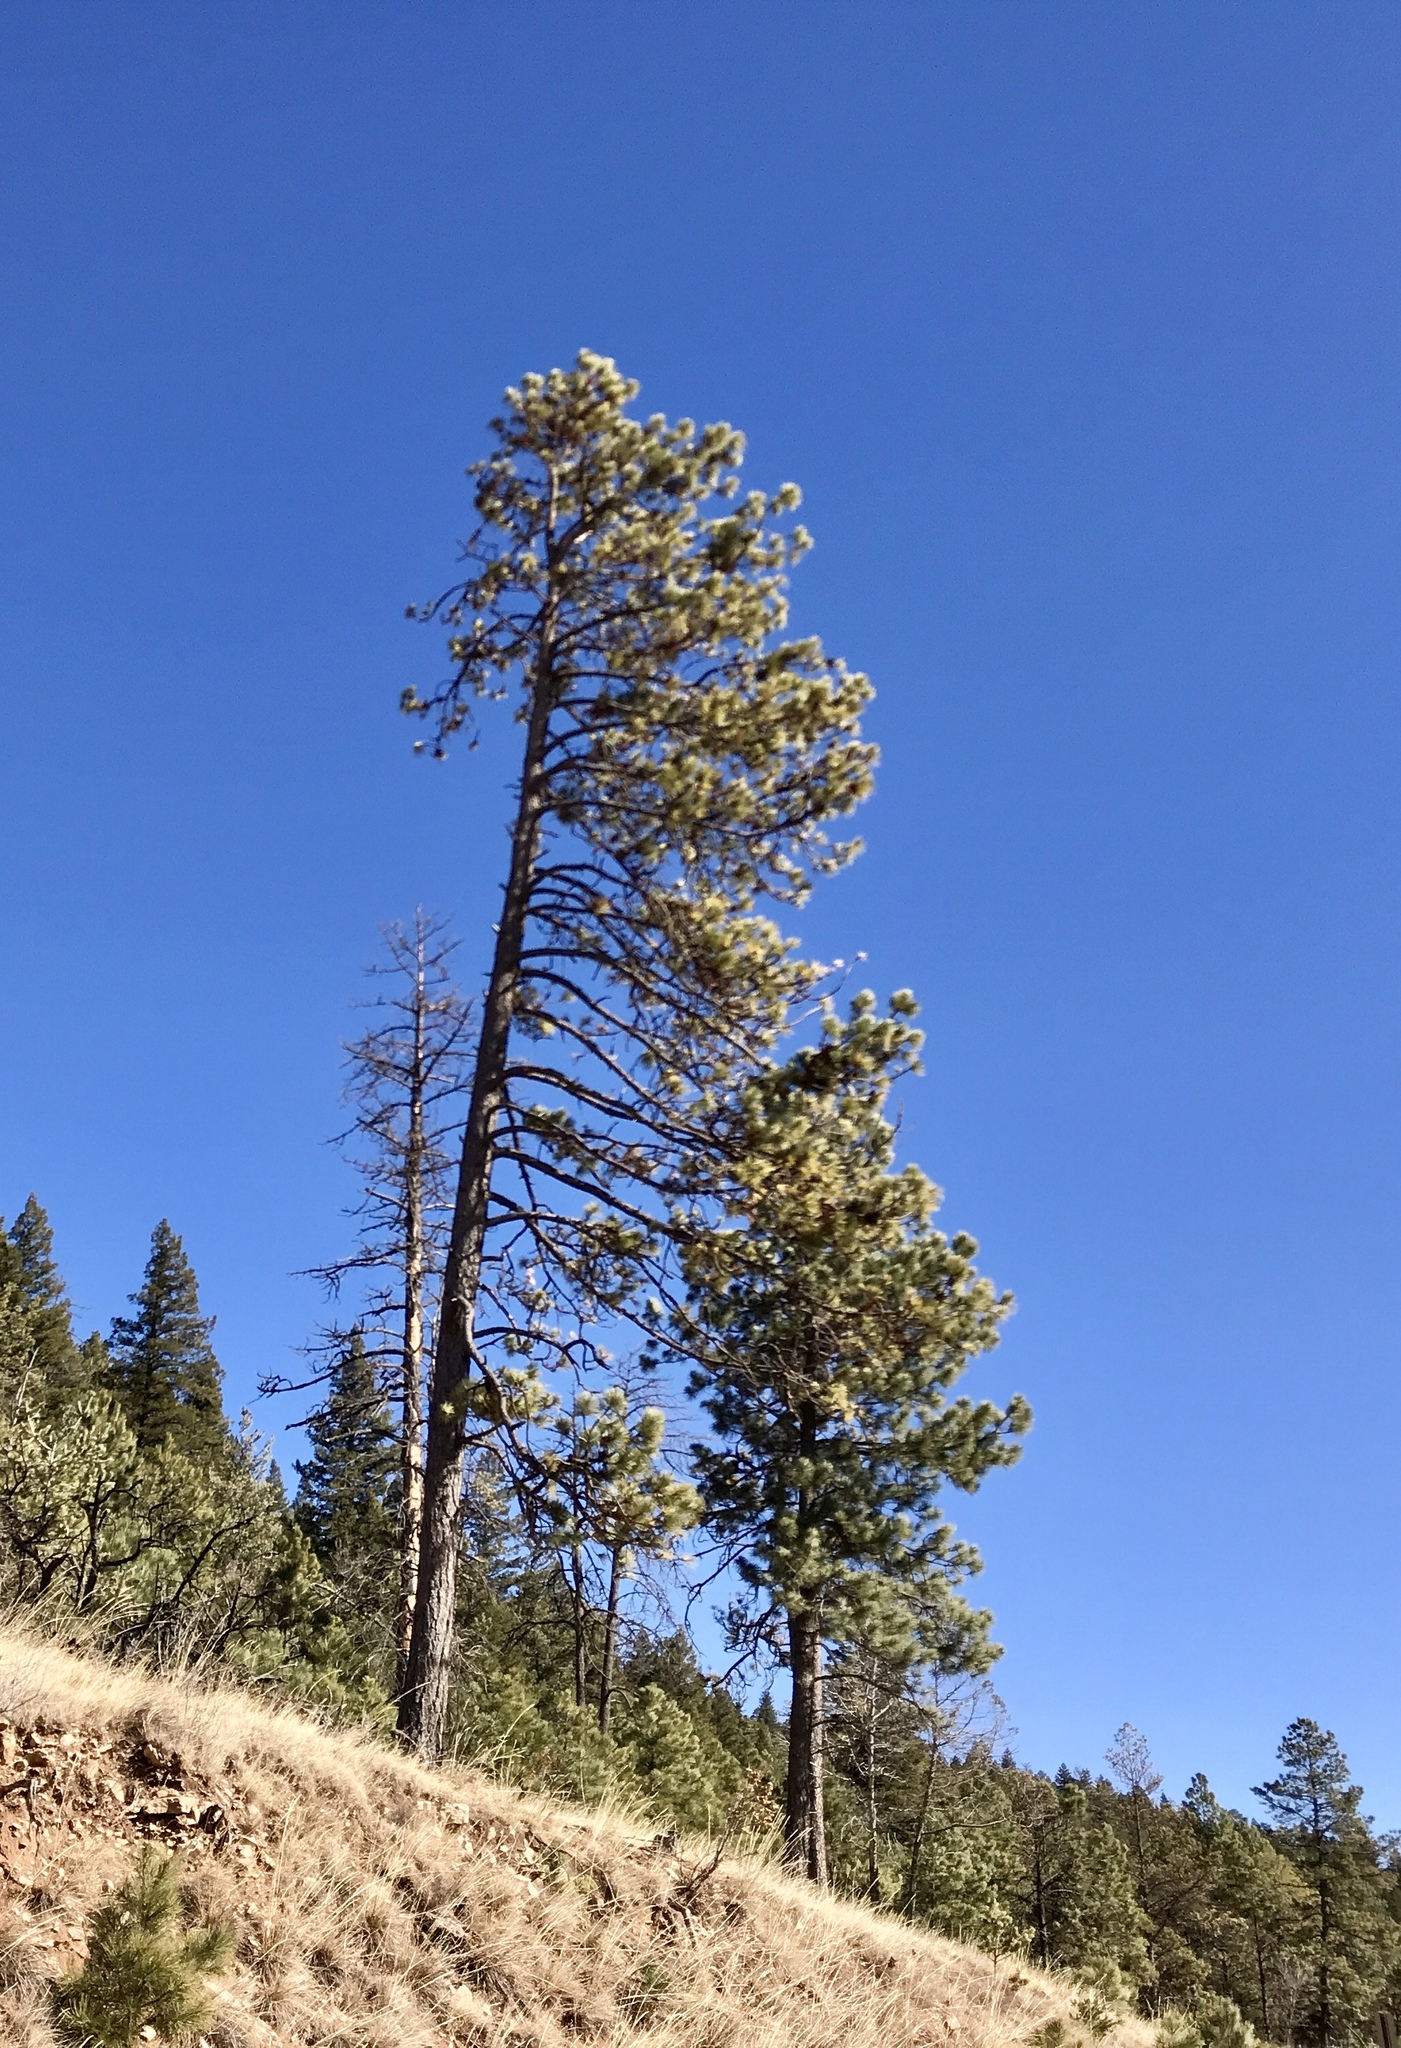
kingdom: Plantae
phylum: Tracheophyta
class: Pinopsida
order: Pinales
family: Pinaceae
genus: Pinus
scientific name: Pinus ponderosa
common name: Western yellow-pine
